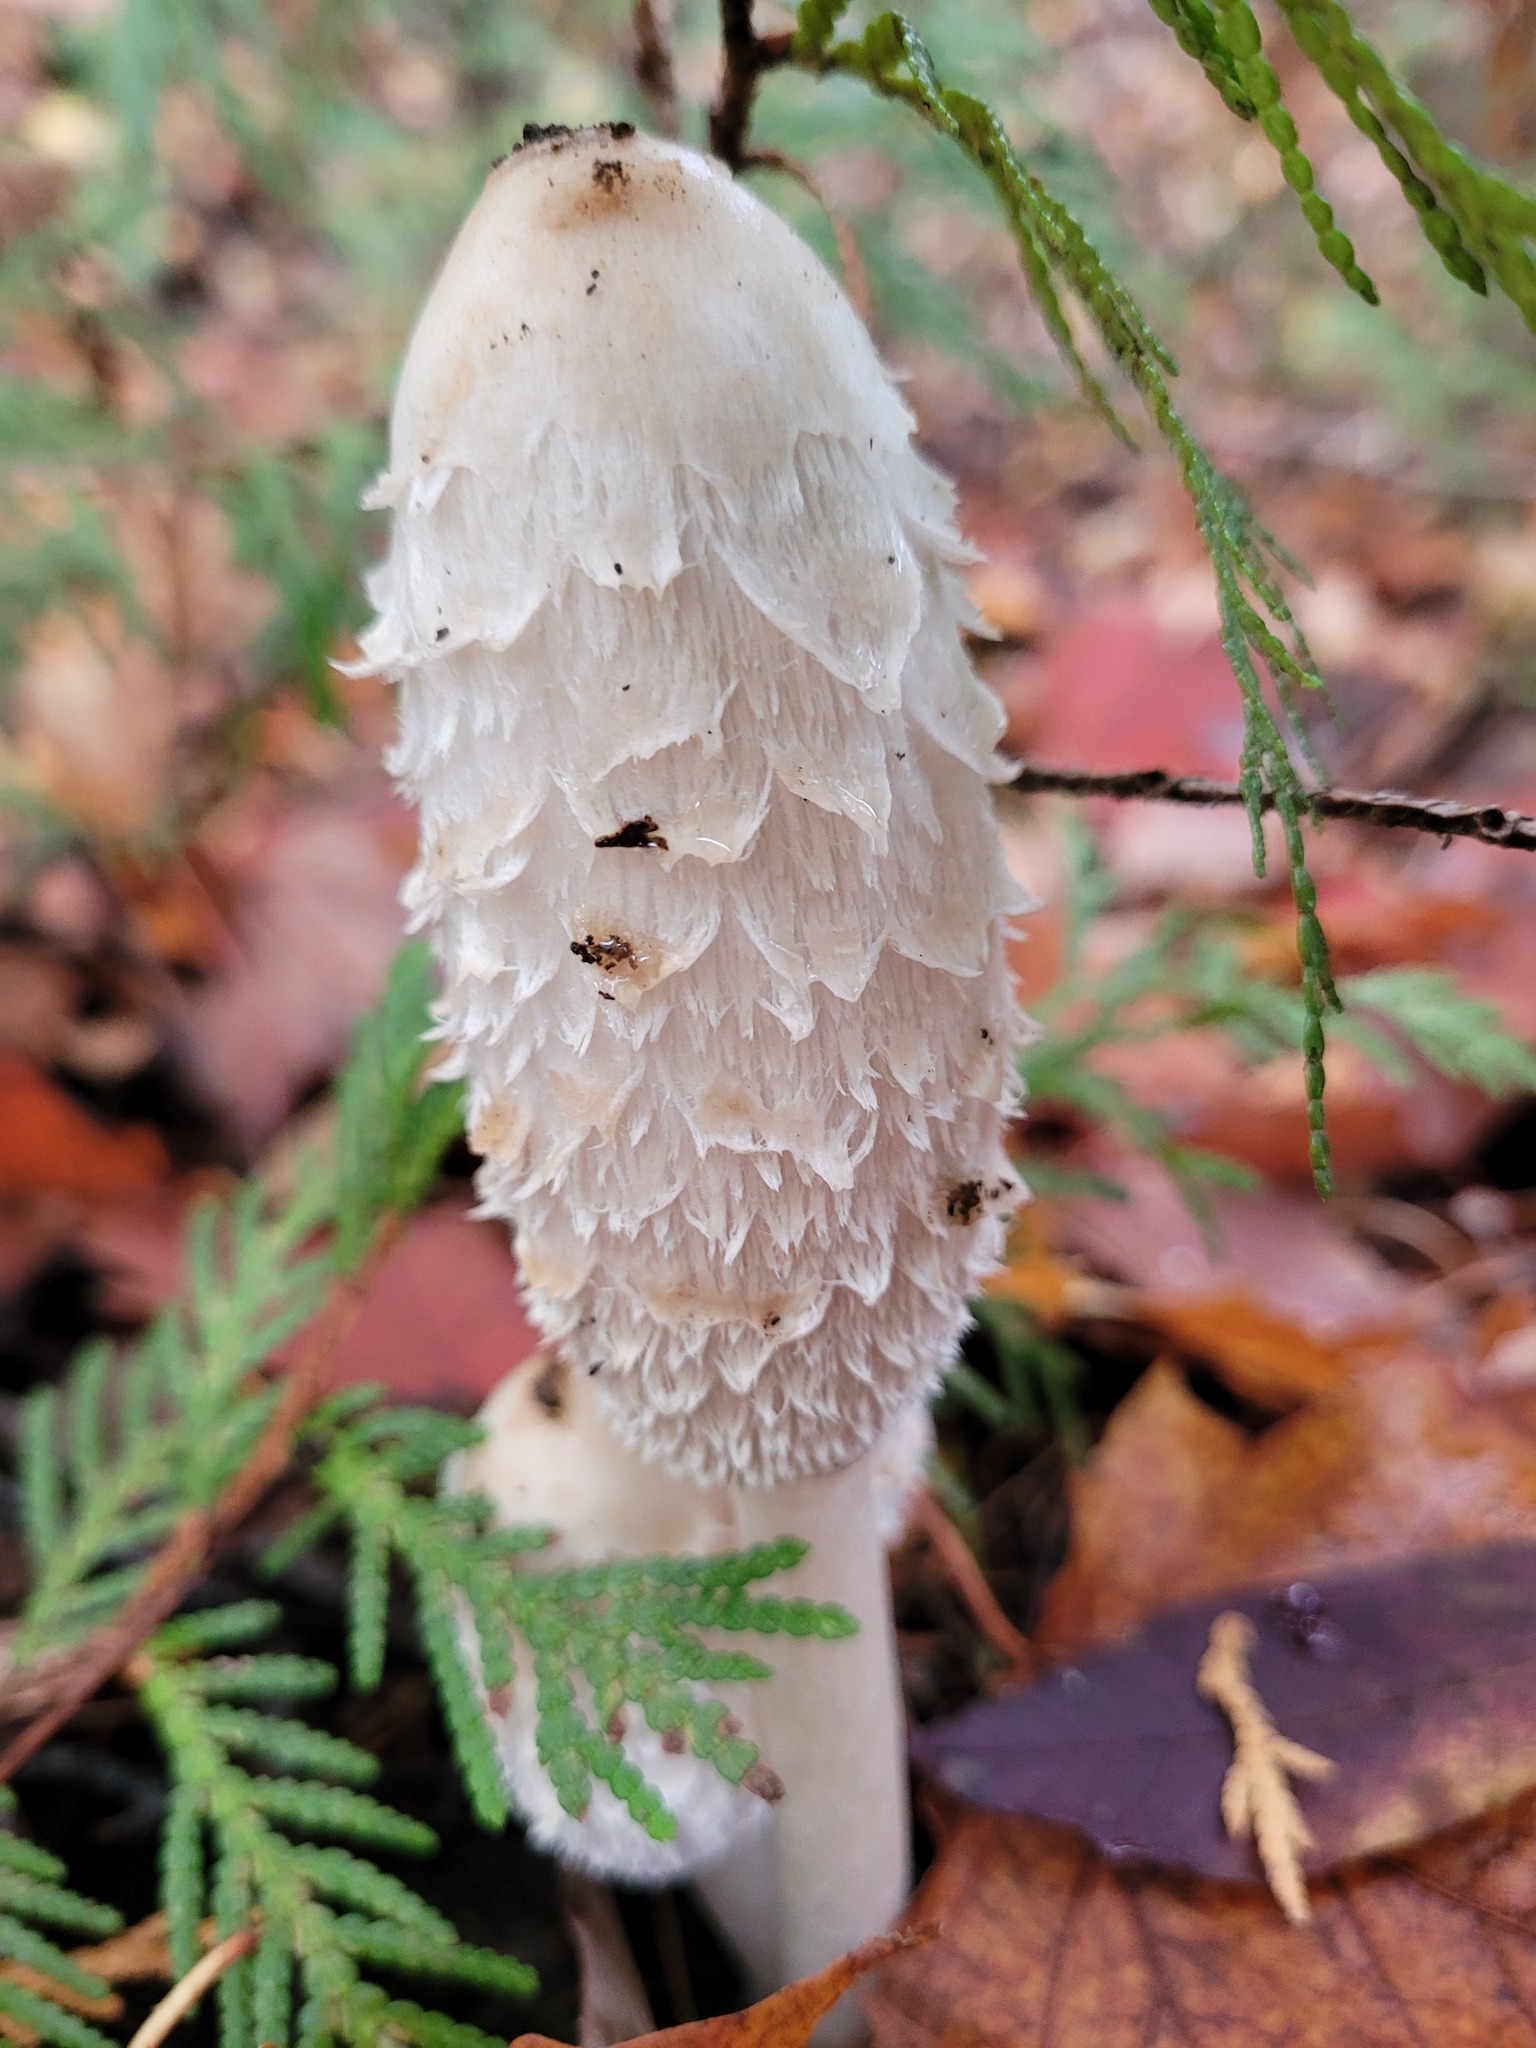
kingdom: Fungi
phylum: Basidiomycota
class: Agaricomycetes
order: Agaricales
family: Agaricaceae
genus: Coprinus
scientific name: Coprinus comatus
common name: Lawyer's wig
